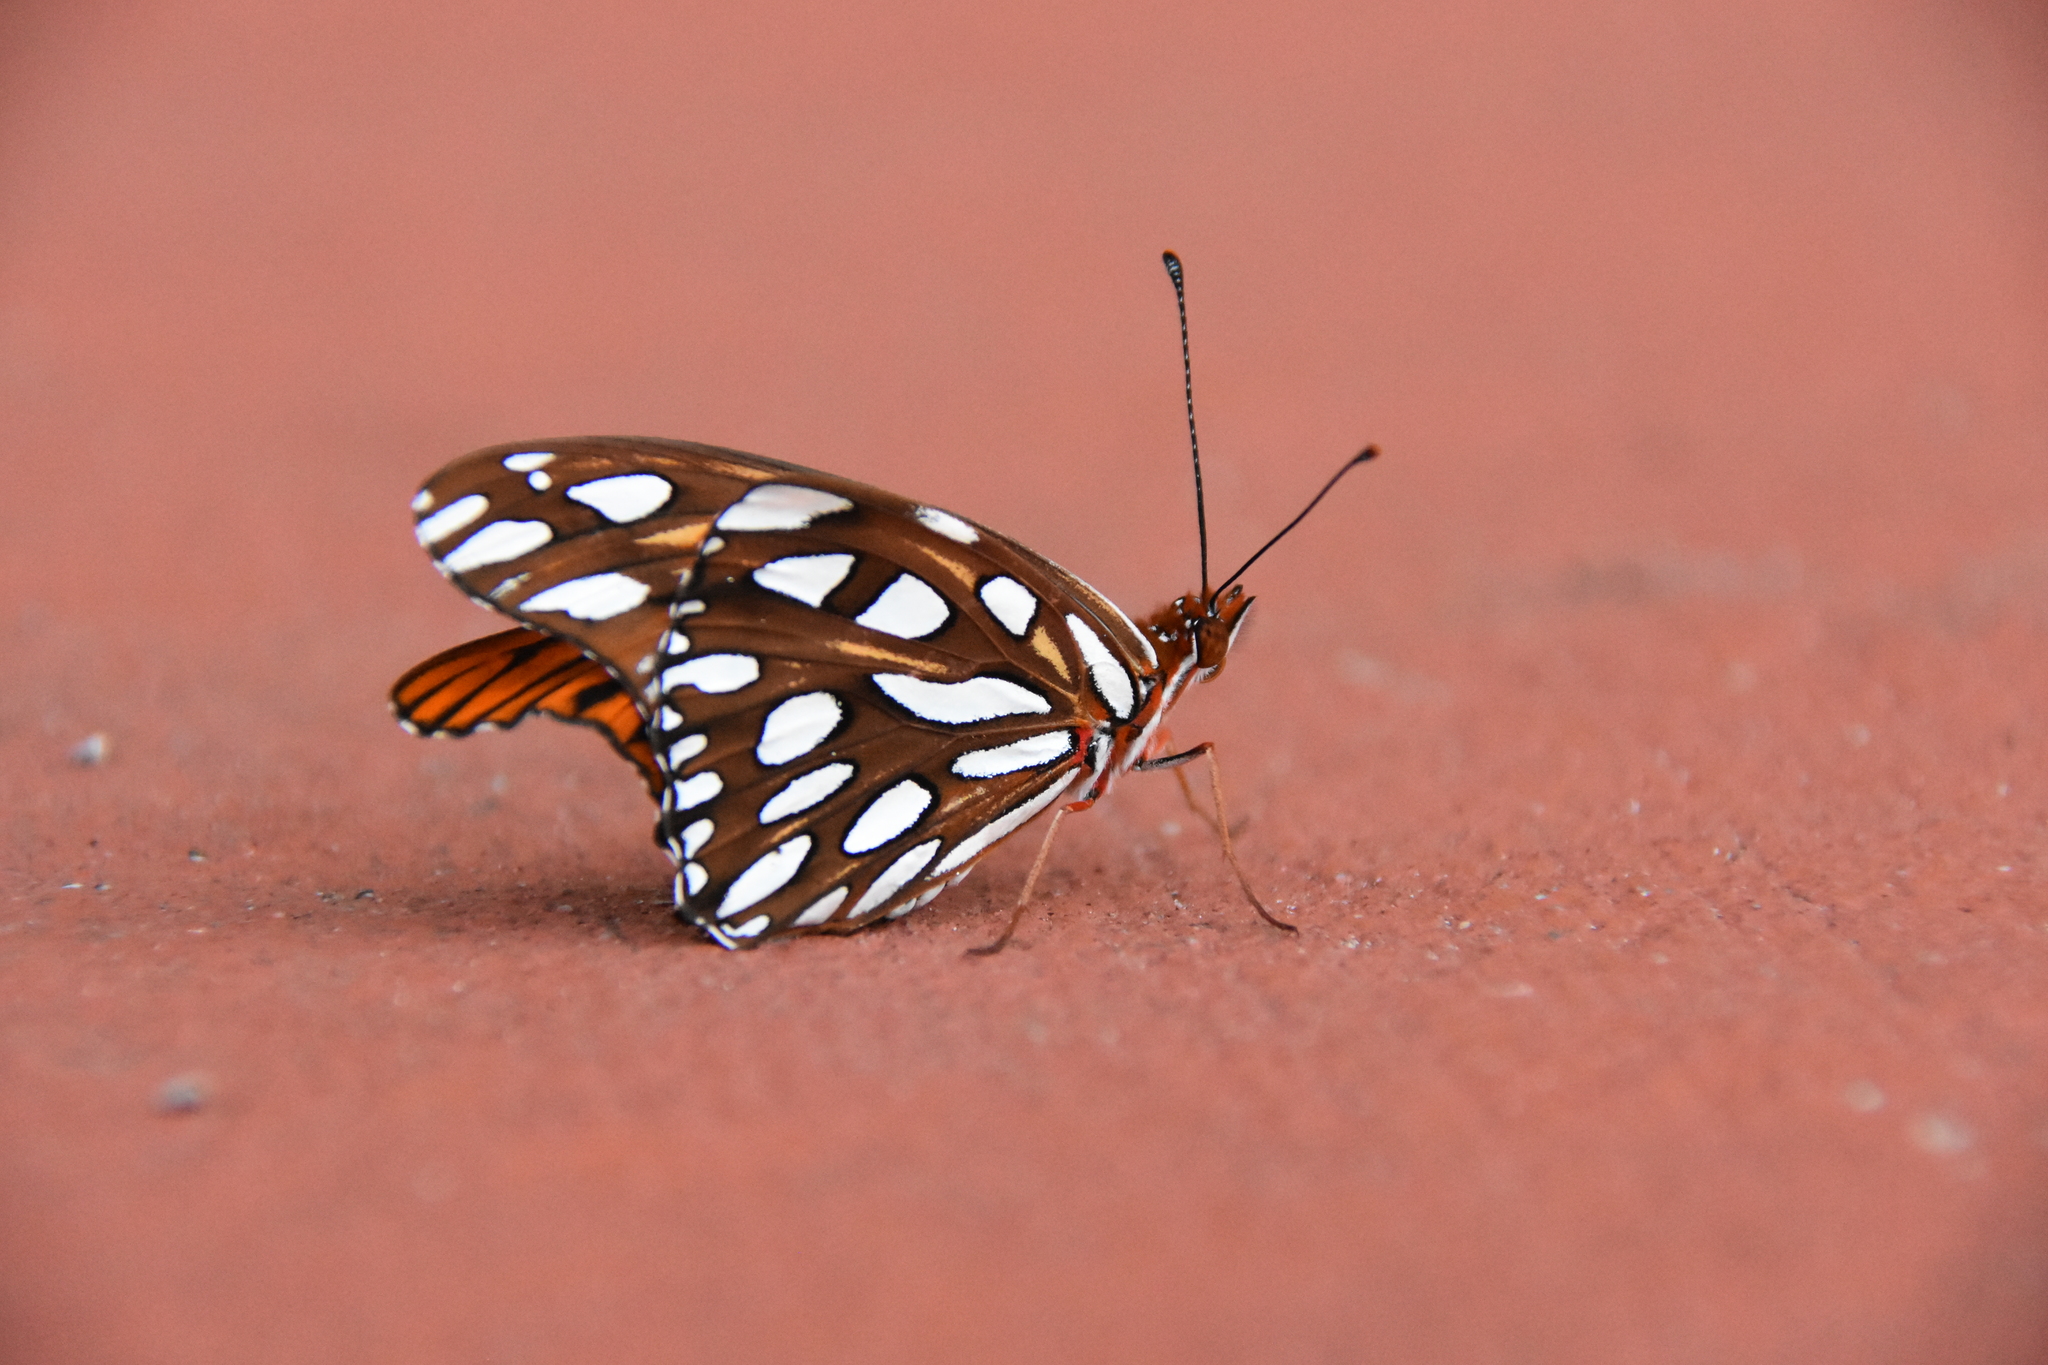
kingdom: Animalia
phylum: Arthropoda
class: Insecta
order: Lepidoptera
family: Nymphalidae
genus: Dione
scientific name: Dione vanillae
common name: Gulf fritillary
